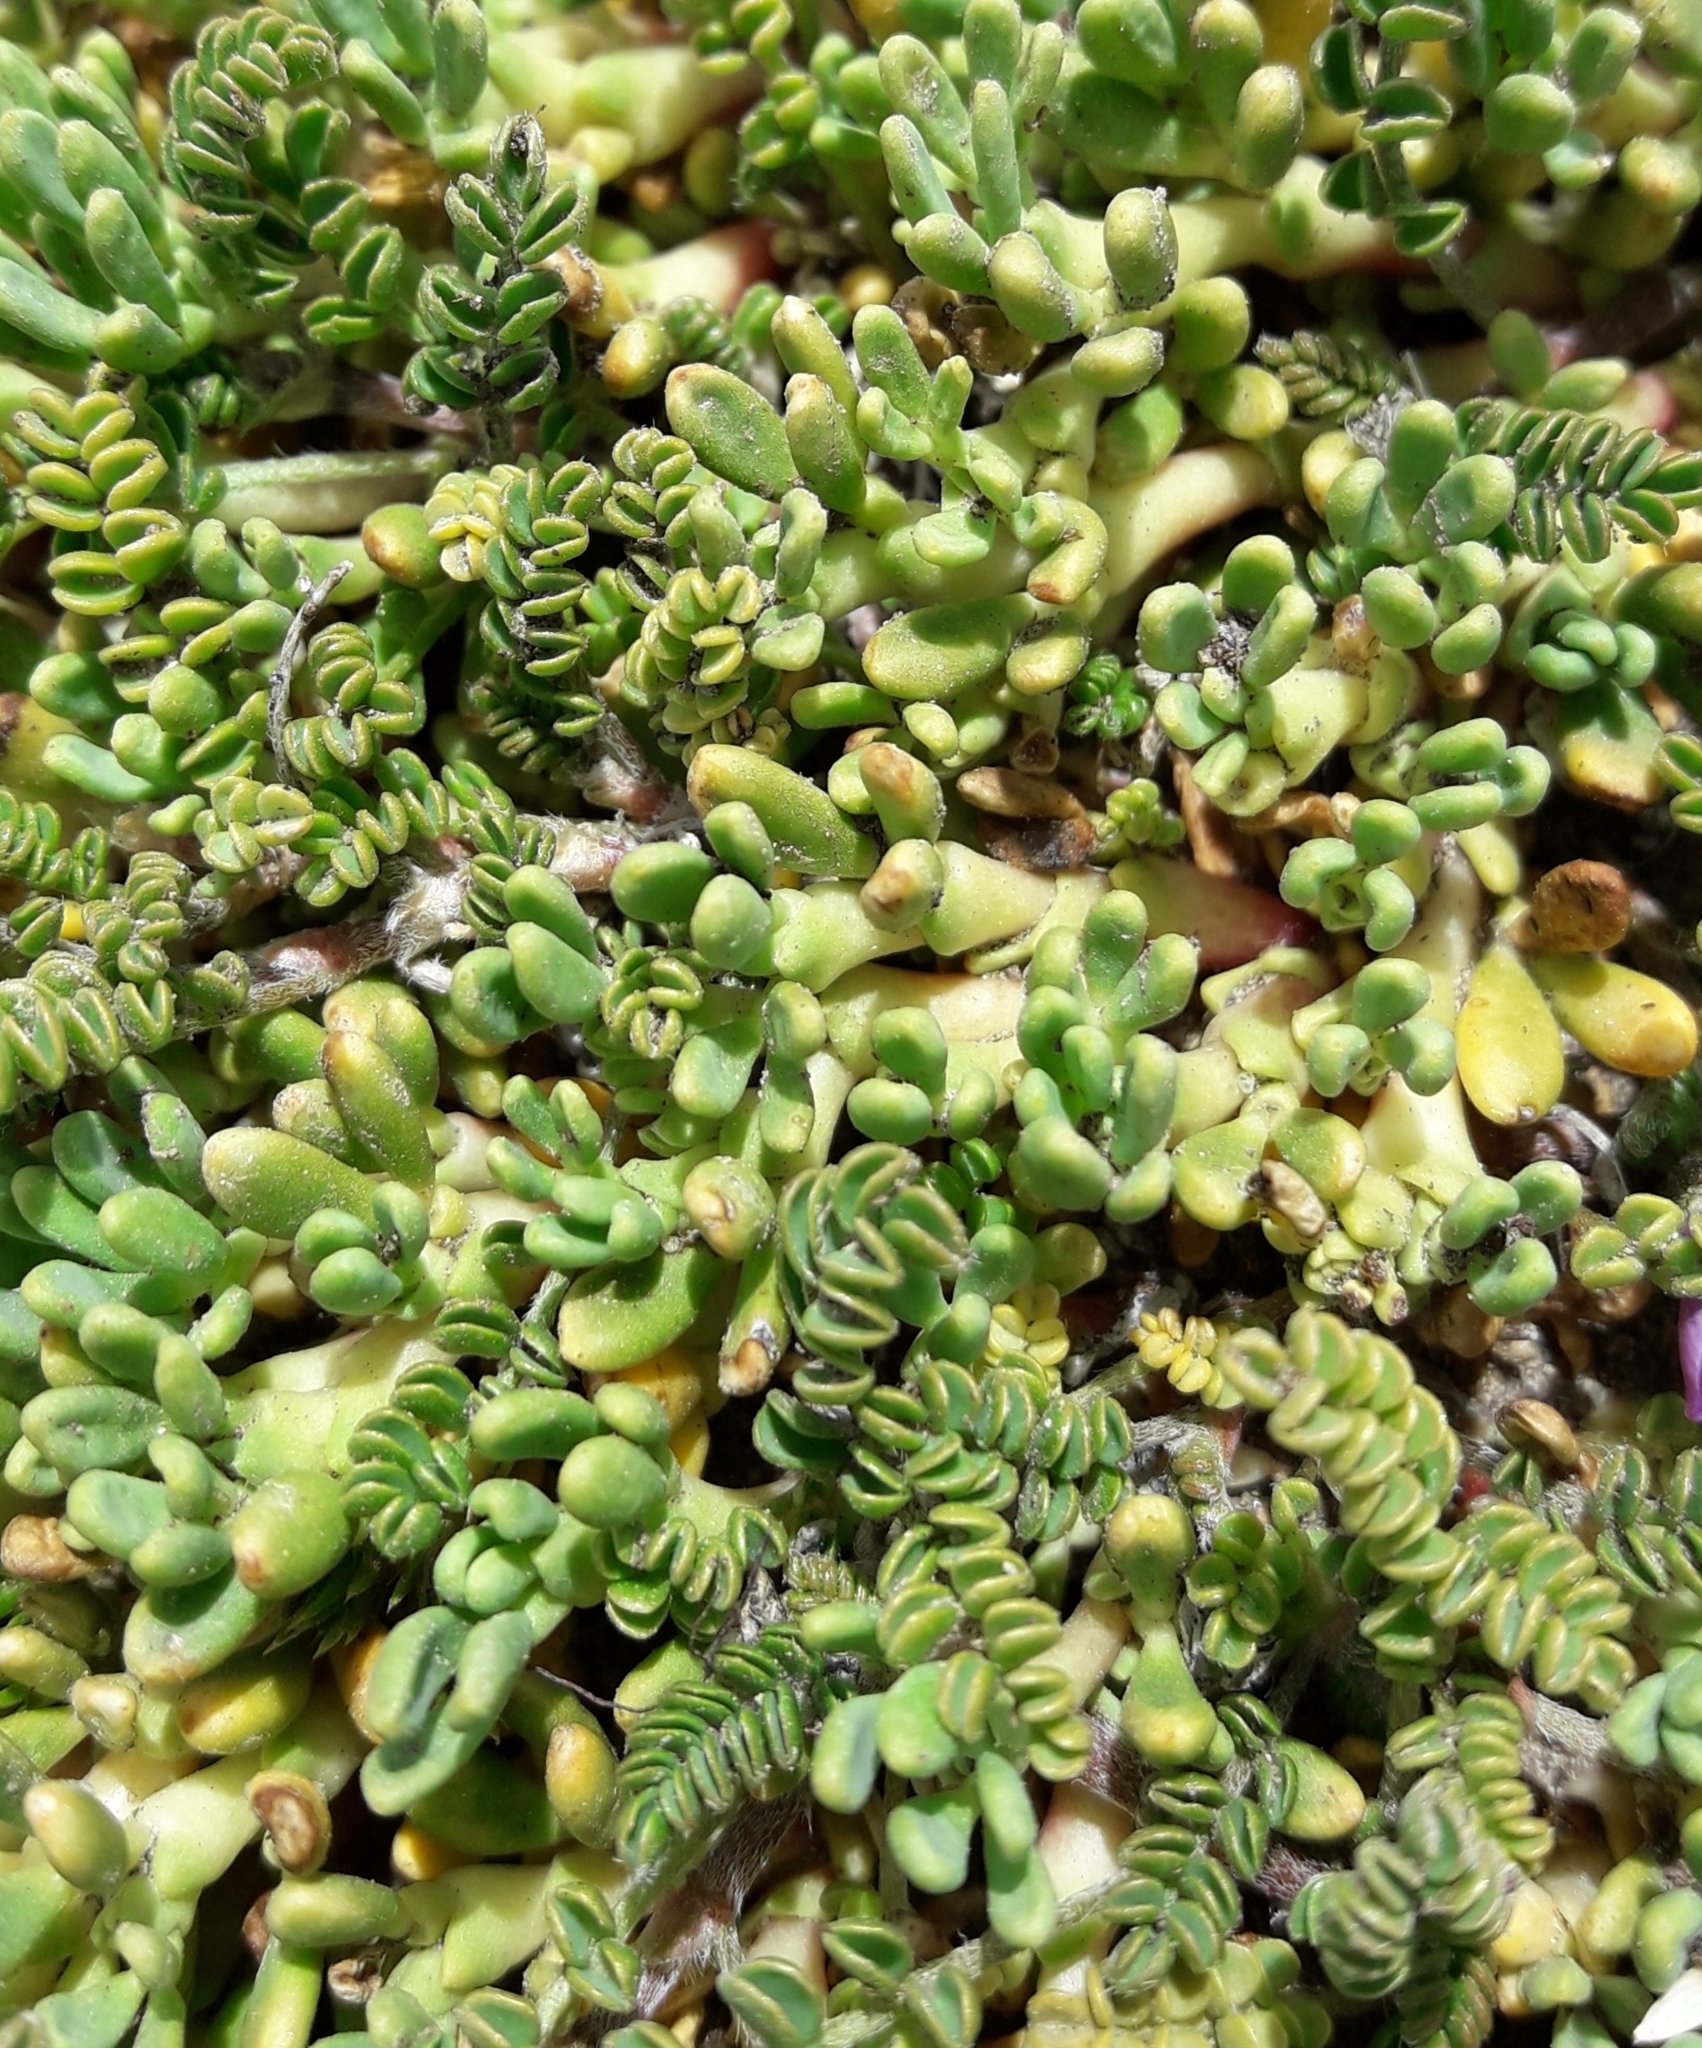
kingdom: Plantae
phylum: Tracheophyta
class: Magnoliopsida
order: Fabales
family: Fabaceae
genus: Astragalus
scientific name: Astragalus nivicola
